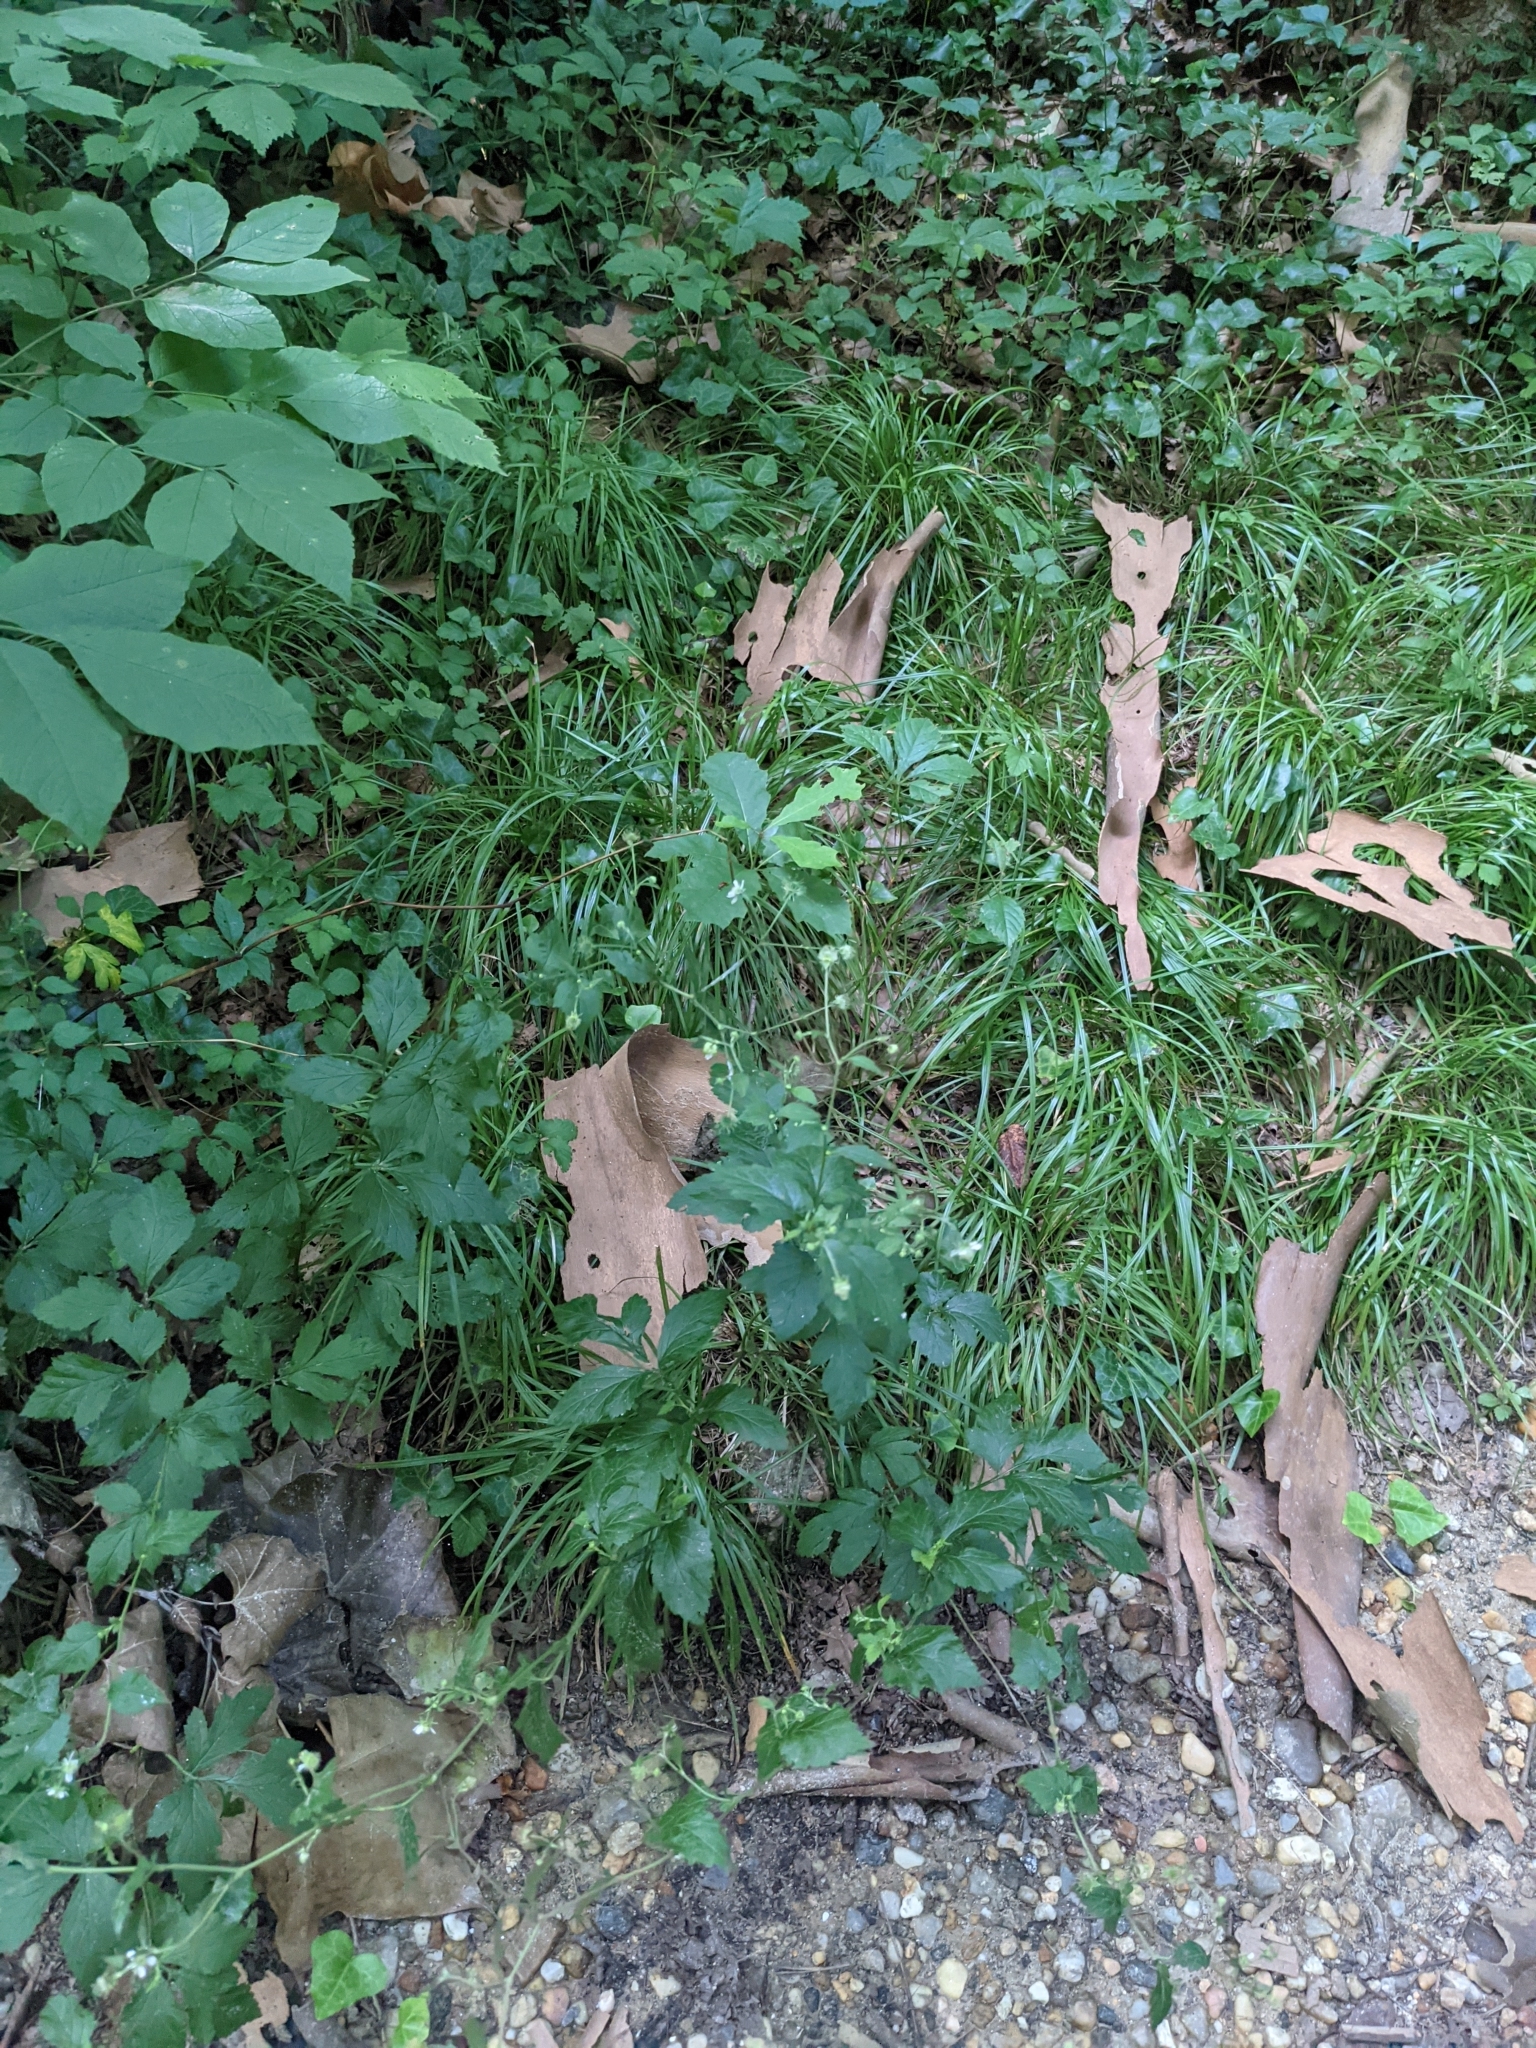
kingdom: Plantae
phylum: Tracheophyta
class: Magnoliopsida
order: Rosales
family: Rosaceae
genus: Geum
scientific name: Geum canadense
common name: White avens
